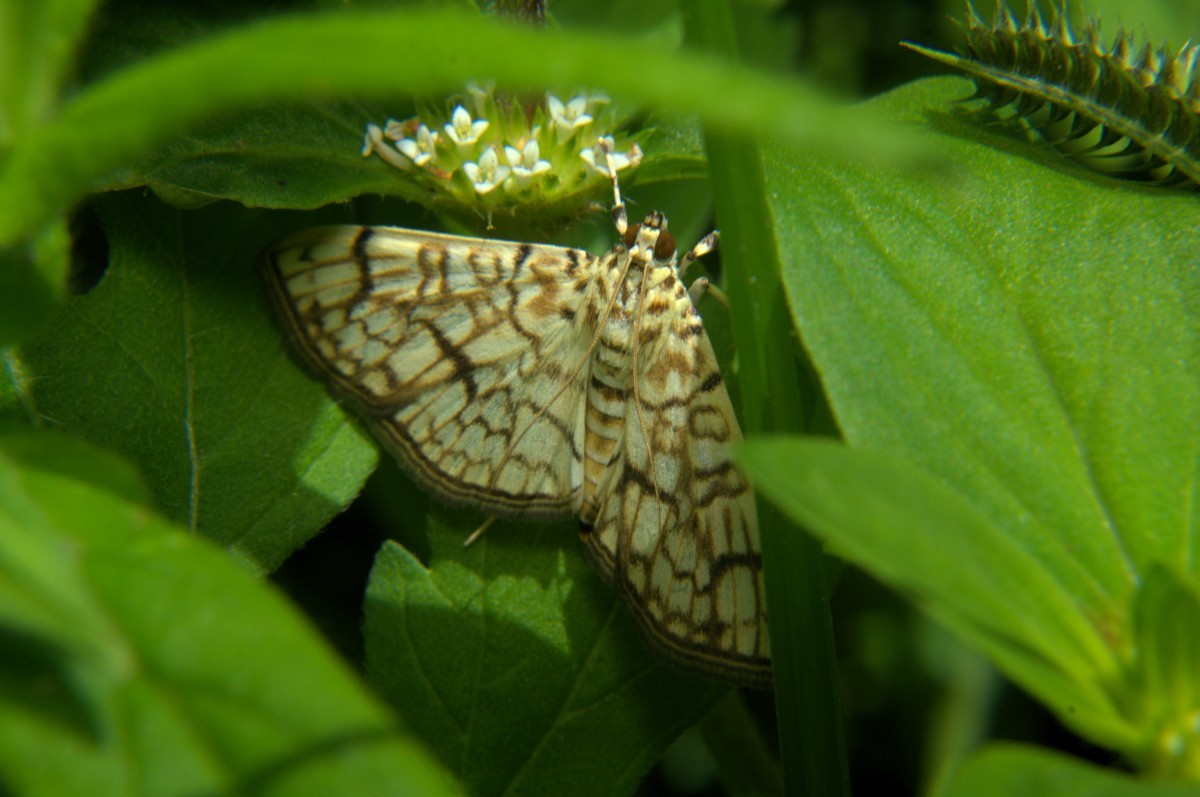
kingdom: Animalia
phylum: Arthropoda
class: Insecta
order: Lepidoptera
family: Crambidae
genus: Haritalodes
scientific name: Haritalodes derogata
